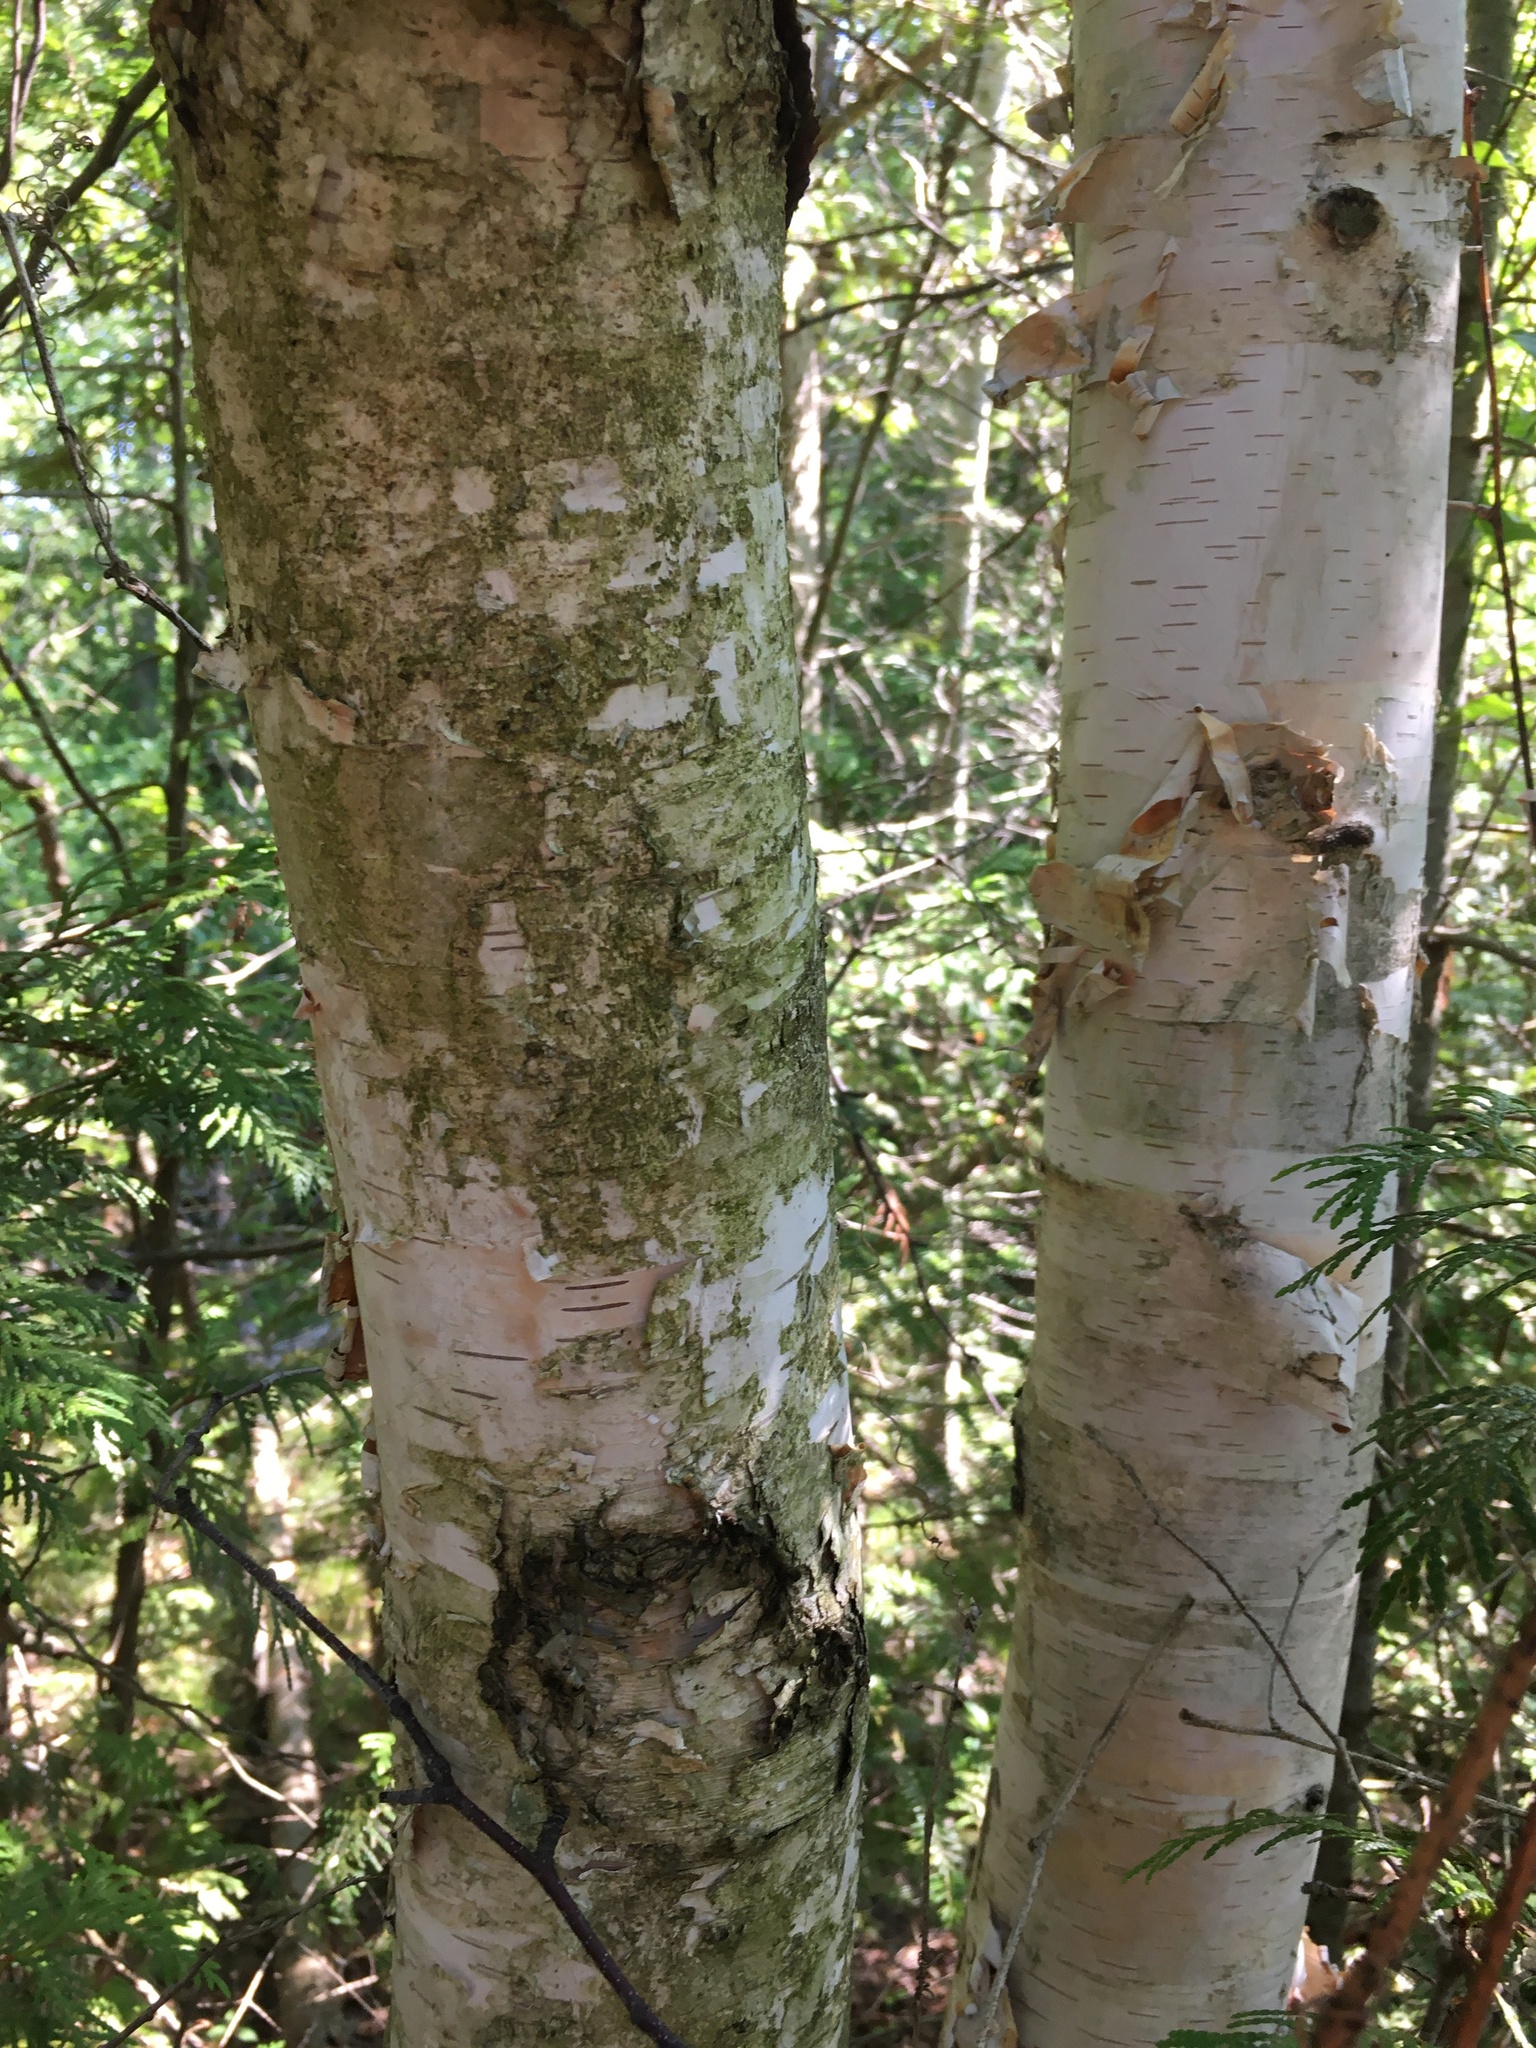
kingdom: Plantae
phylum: Tracheophyta
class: Magnoliopsida
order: Fagales
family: Betulaceae
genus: Betula
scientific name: Betula papyrifera
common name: Paper birch
